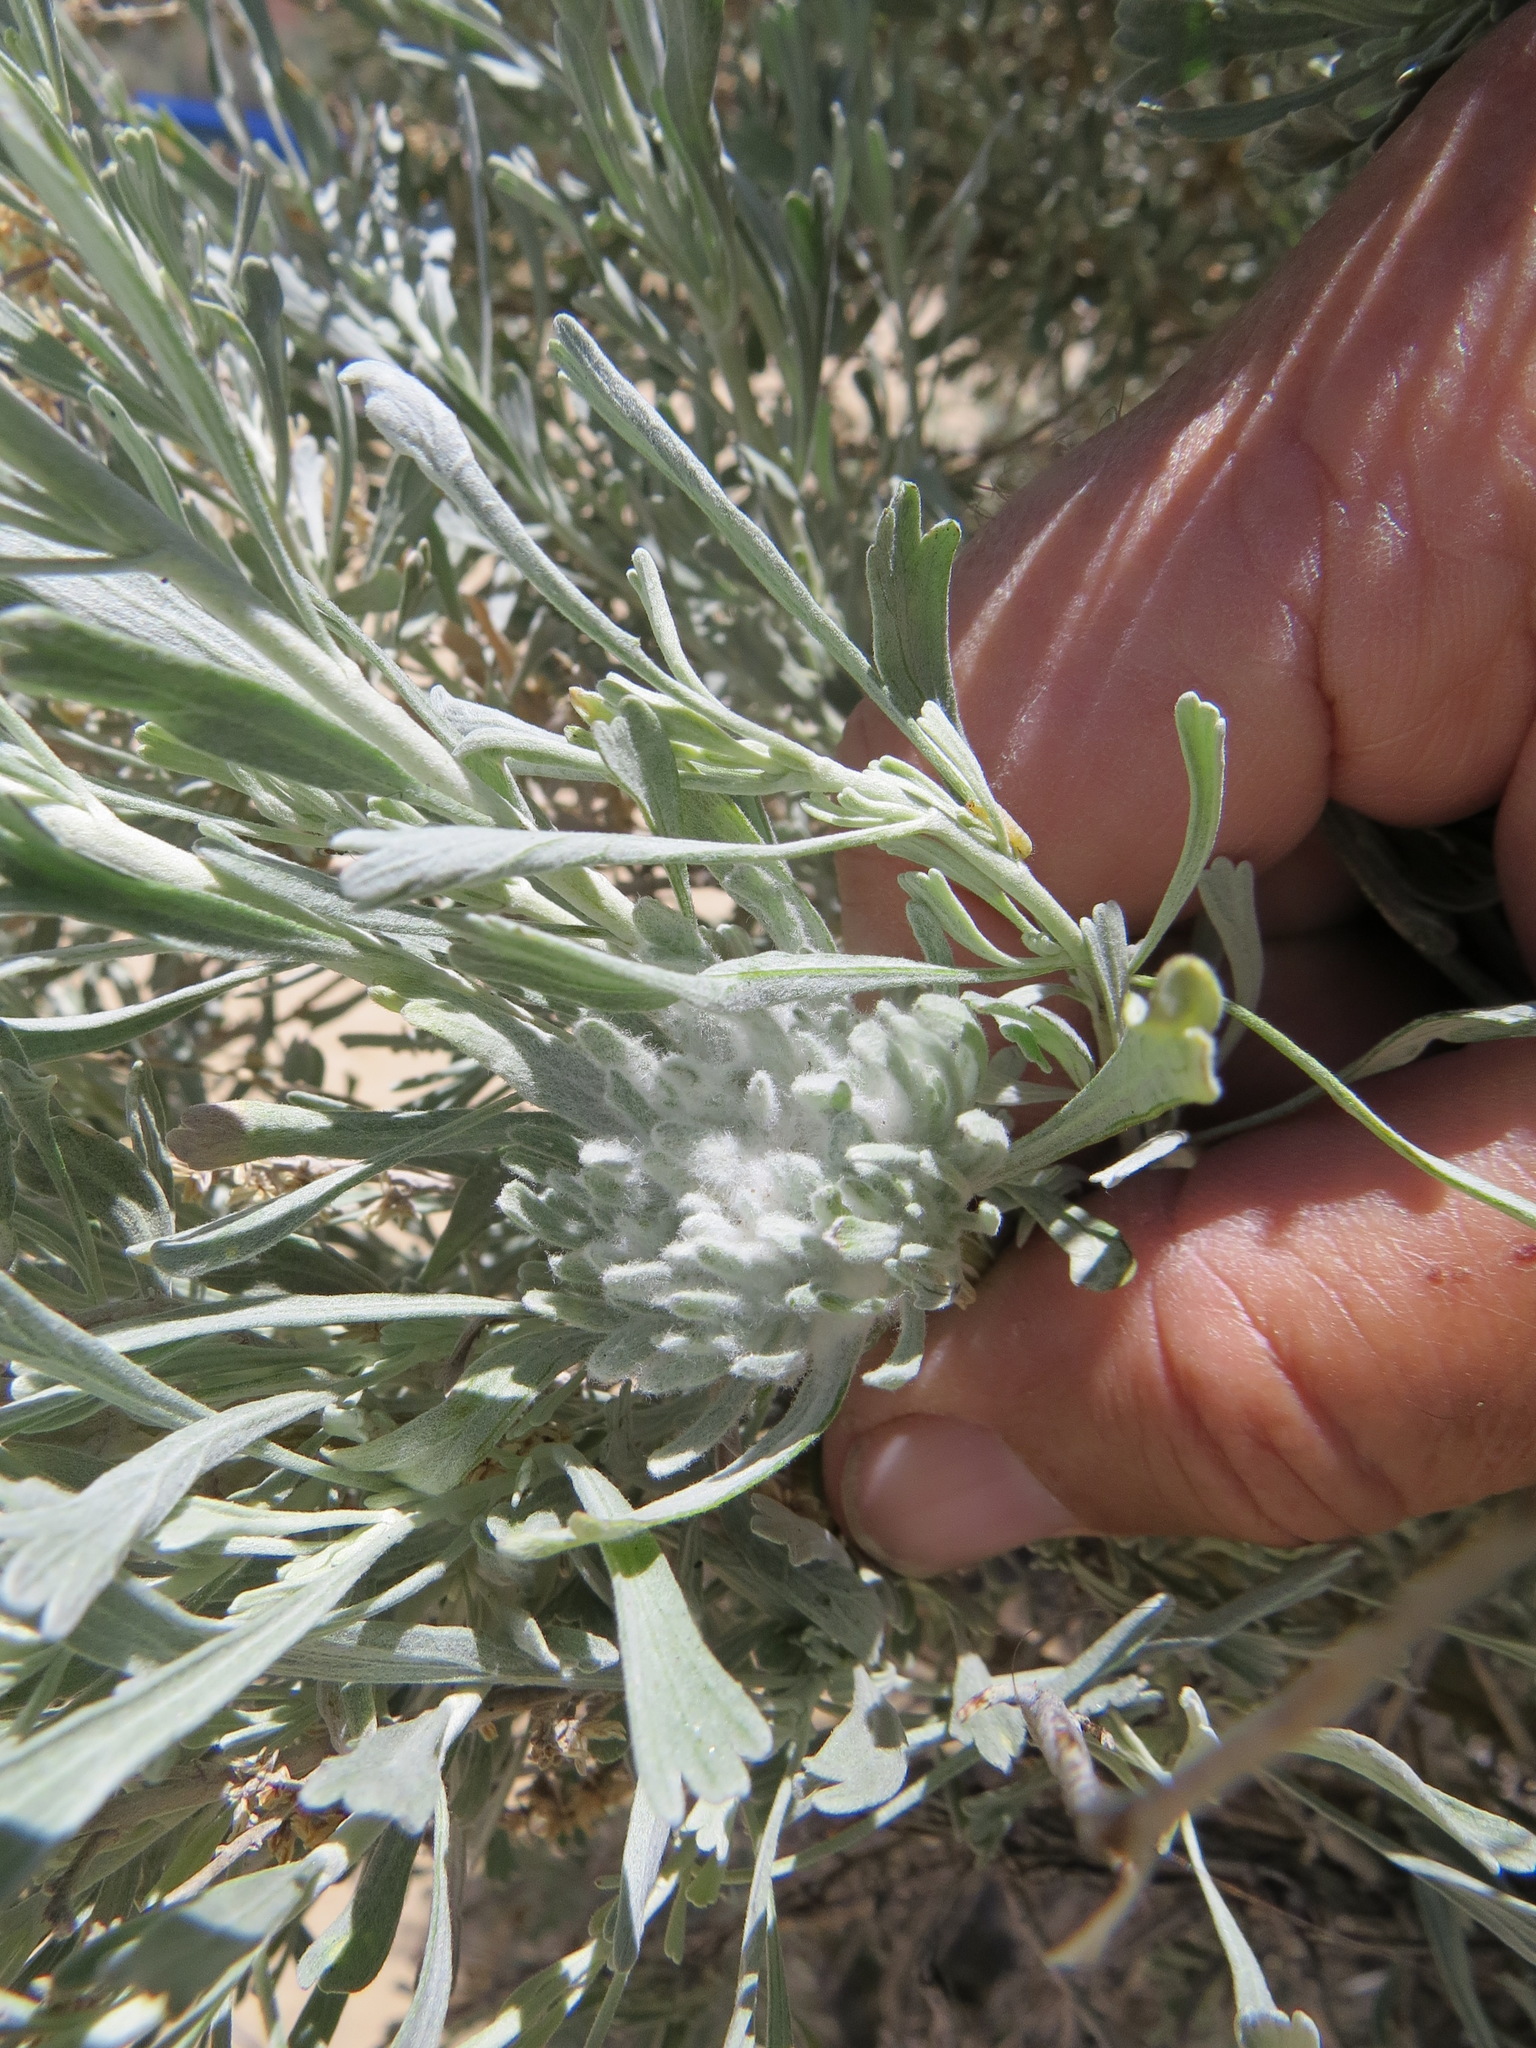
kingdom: Animalia
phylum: Arthropoda
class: Insecta
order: Diptera
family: Cecidomyiidae
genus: Rhopalomyia
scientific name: Rhopalomyia anthoides
